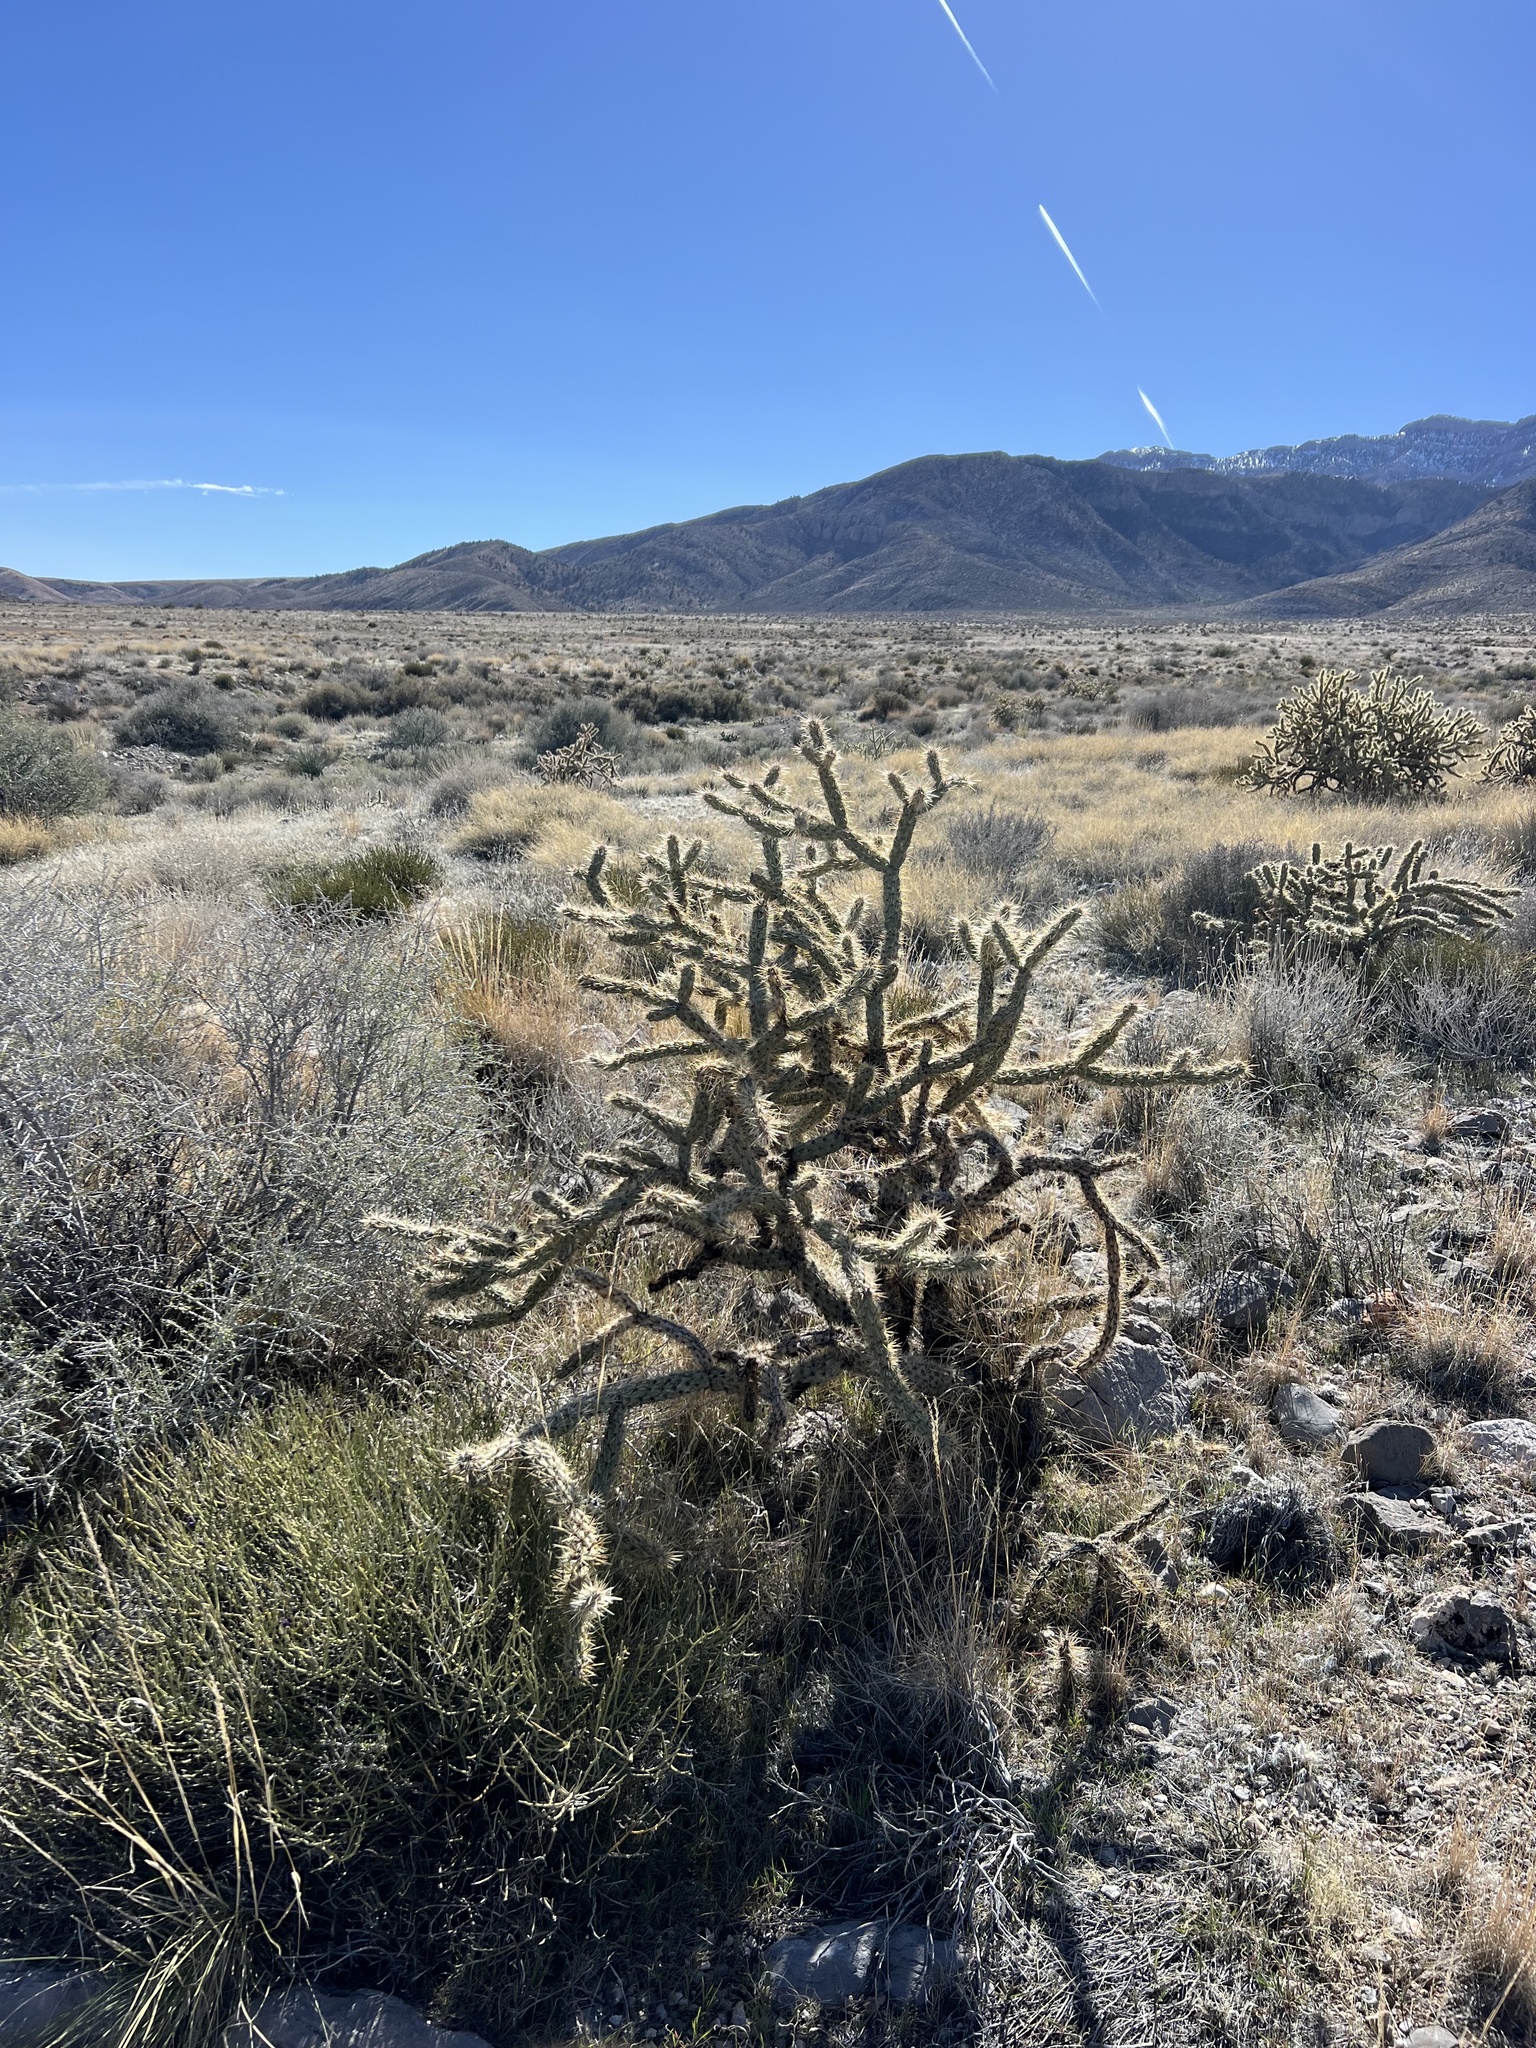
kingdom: Plantae
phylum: Tracheophyta
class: Magnoliopsida
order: Caryophyllales
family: Cactaceae
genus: Cylindropuntia
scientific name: Cylindropuntia acanthocarpa
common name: Buckhorn cholla
